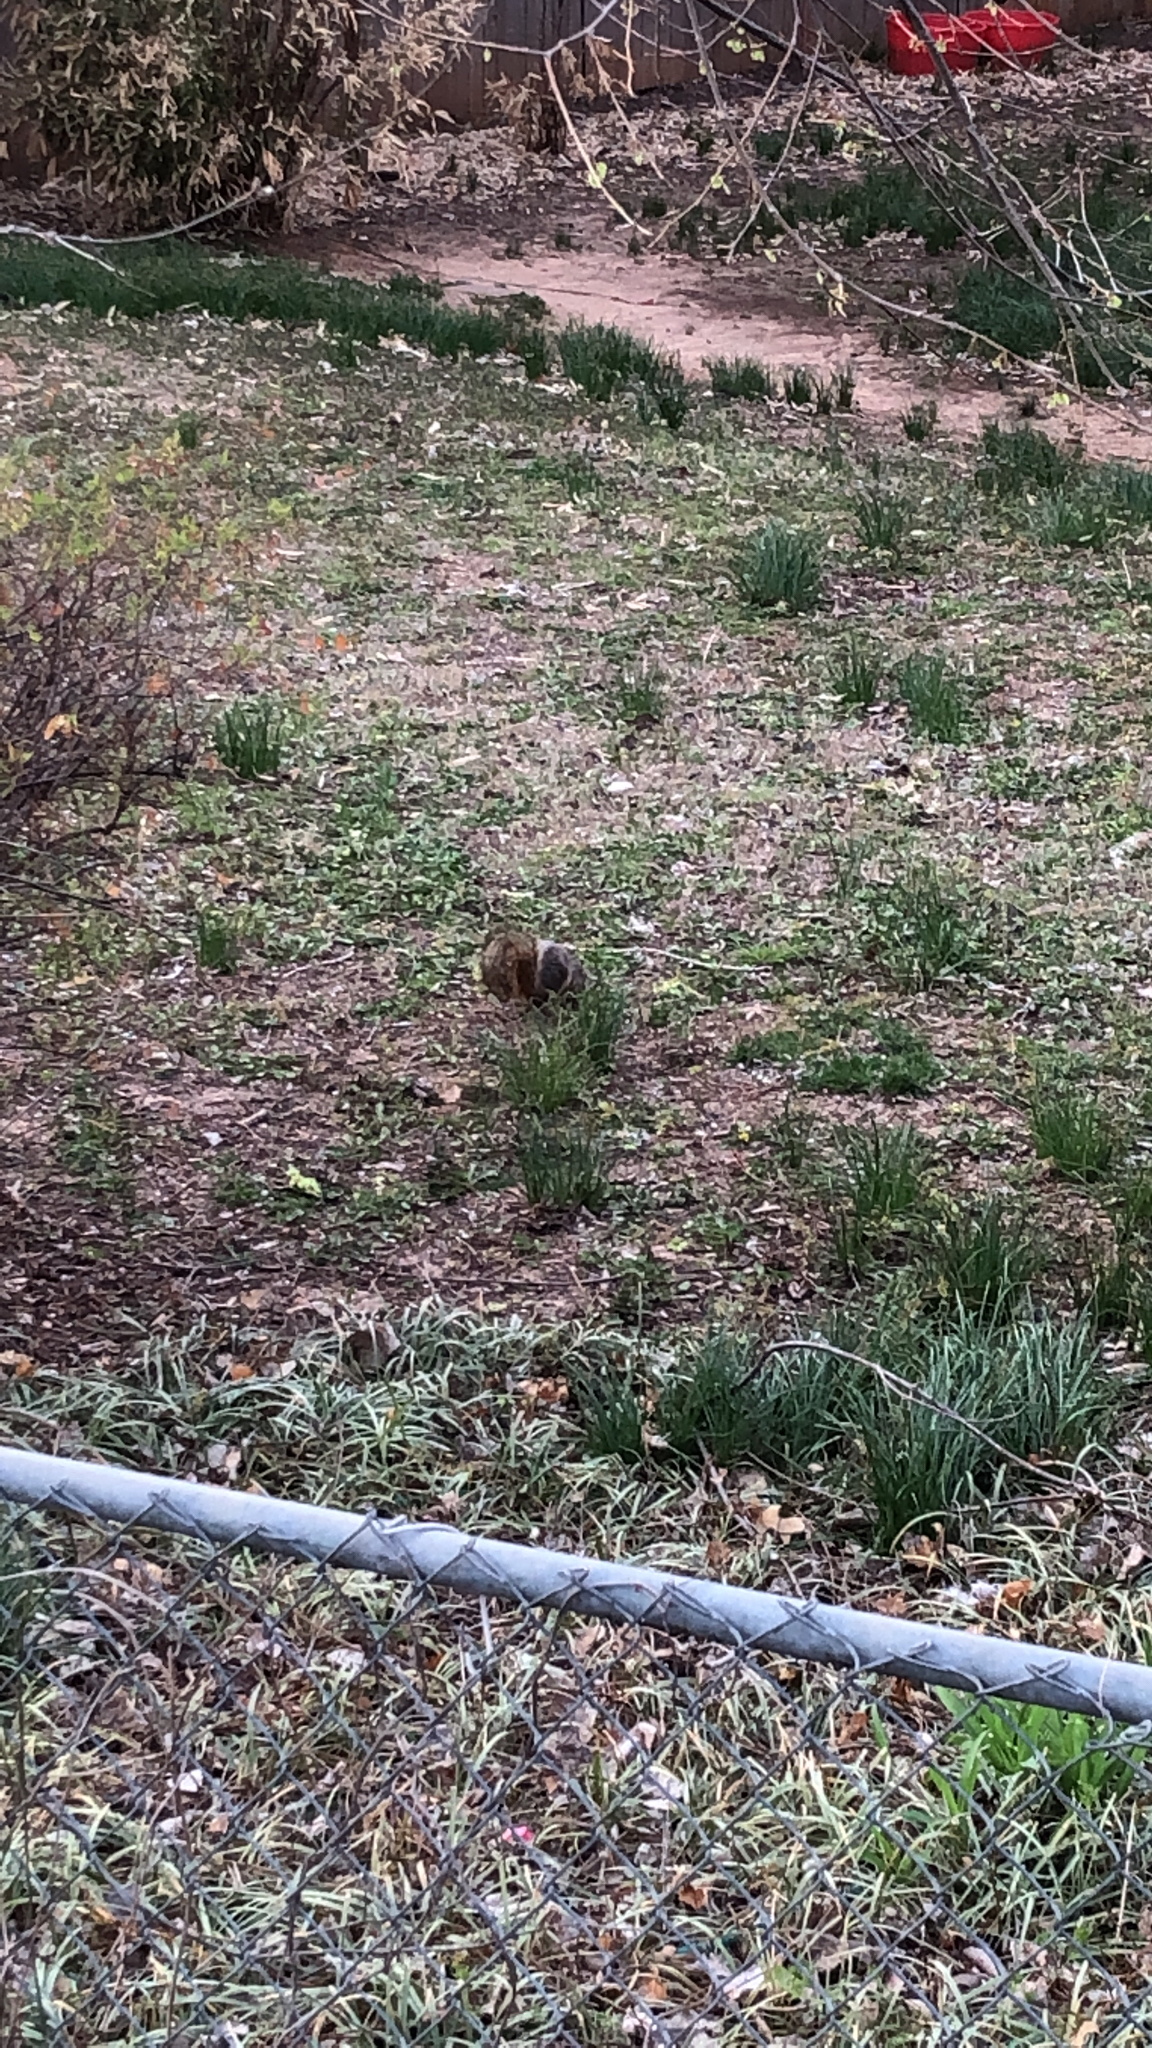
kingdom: Animalia
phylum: Chordata
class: Mammalia
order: Rodentia
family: Sciuridae
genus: Sciurus
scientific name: Sciurus niger
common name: Fox squirrel
